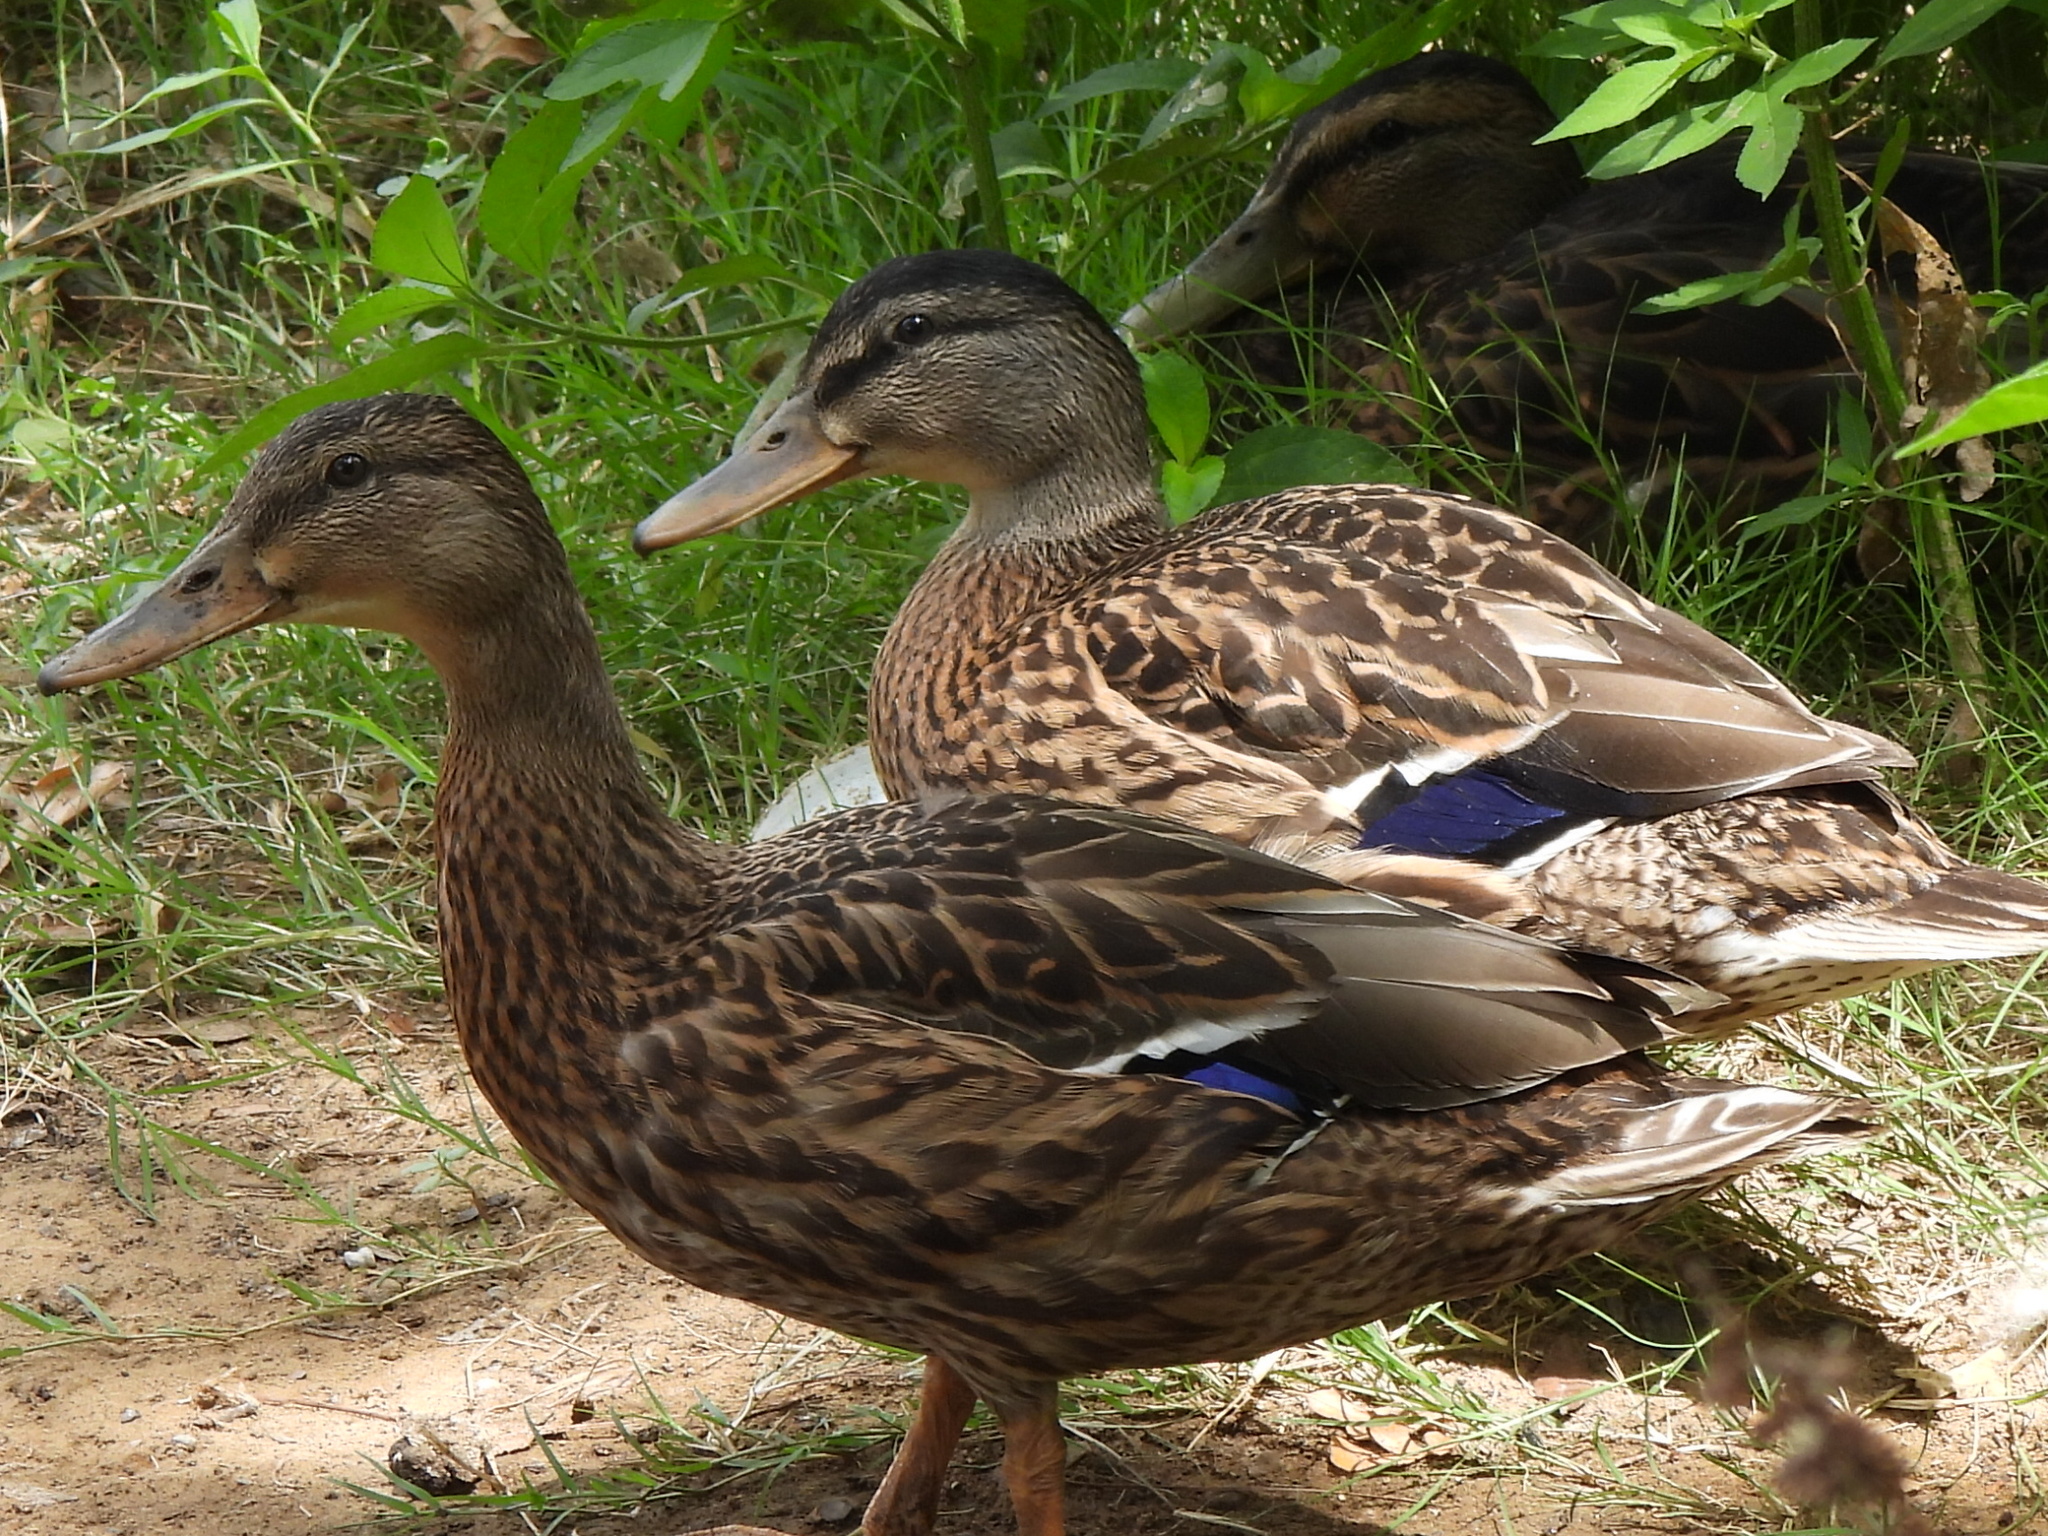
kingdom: Animalia
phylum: Chordata
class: Aves
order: Anseriformes
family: Anatidae
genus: Anas
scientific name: Anas platyrhynchos
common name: Mallard
